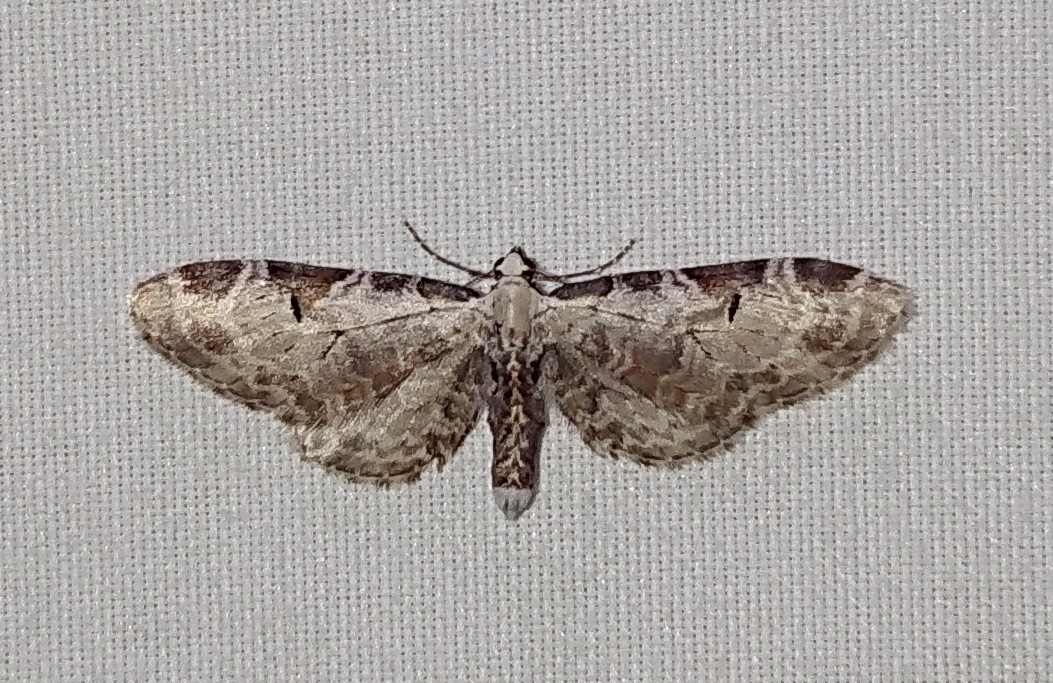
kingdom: Animalia
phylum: Arthropoda
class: Insecta
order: Lepidoptera
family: Geometridae
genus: Eupithecia
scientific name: Eupithecia ravocostaliata
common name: Great varigated pug
